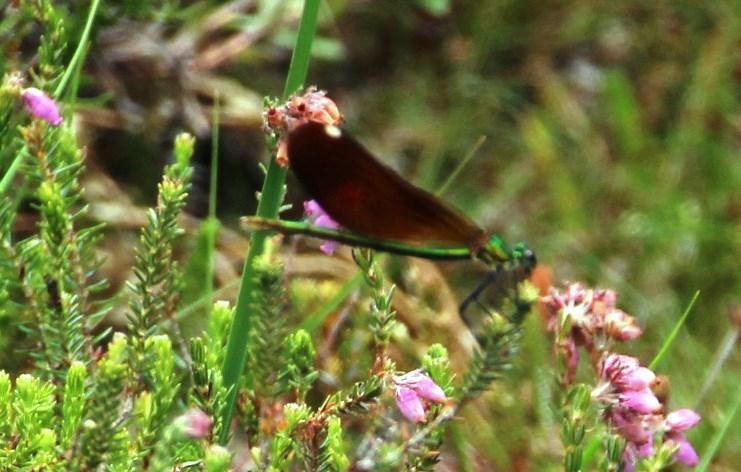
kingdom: Animalia
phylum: Arthropoda
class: Insecta
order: Odonata
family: Calopterygidae
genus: Calopteryx
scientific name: Calopteryx virgo
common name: Beautiful demoiselle
